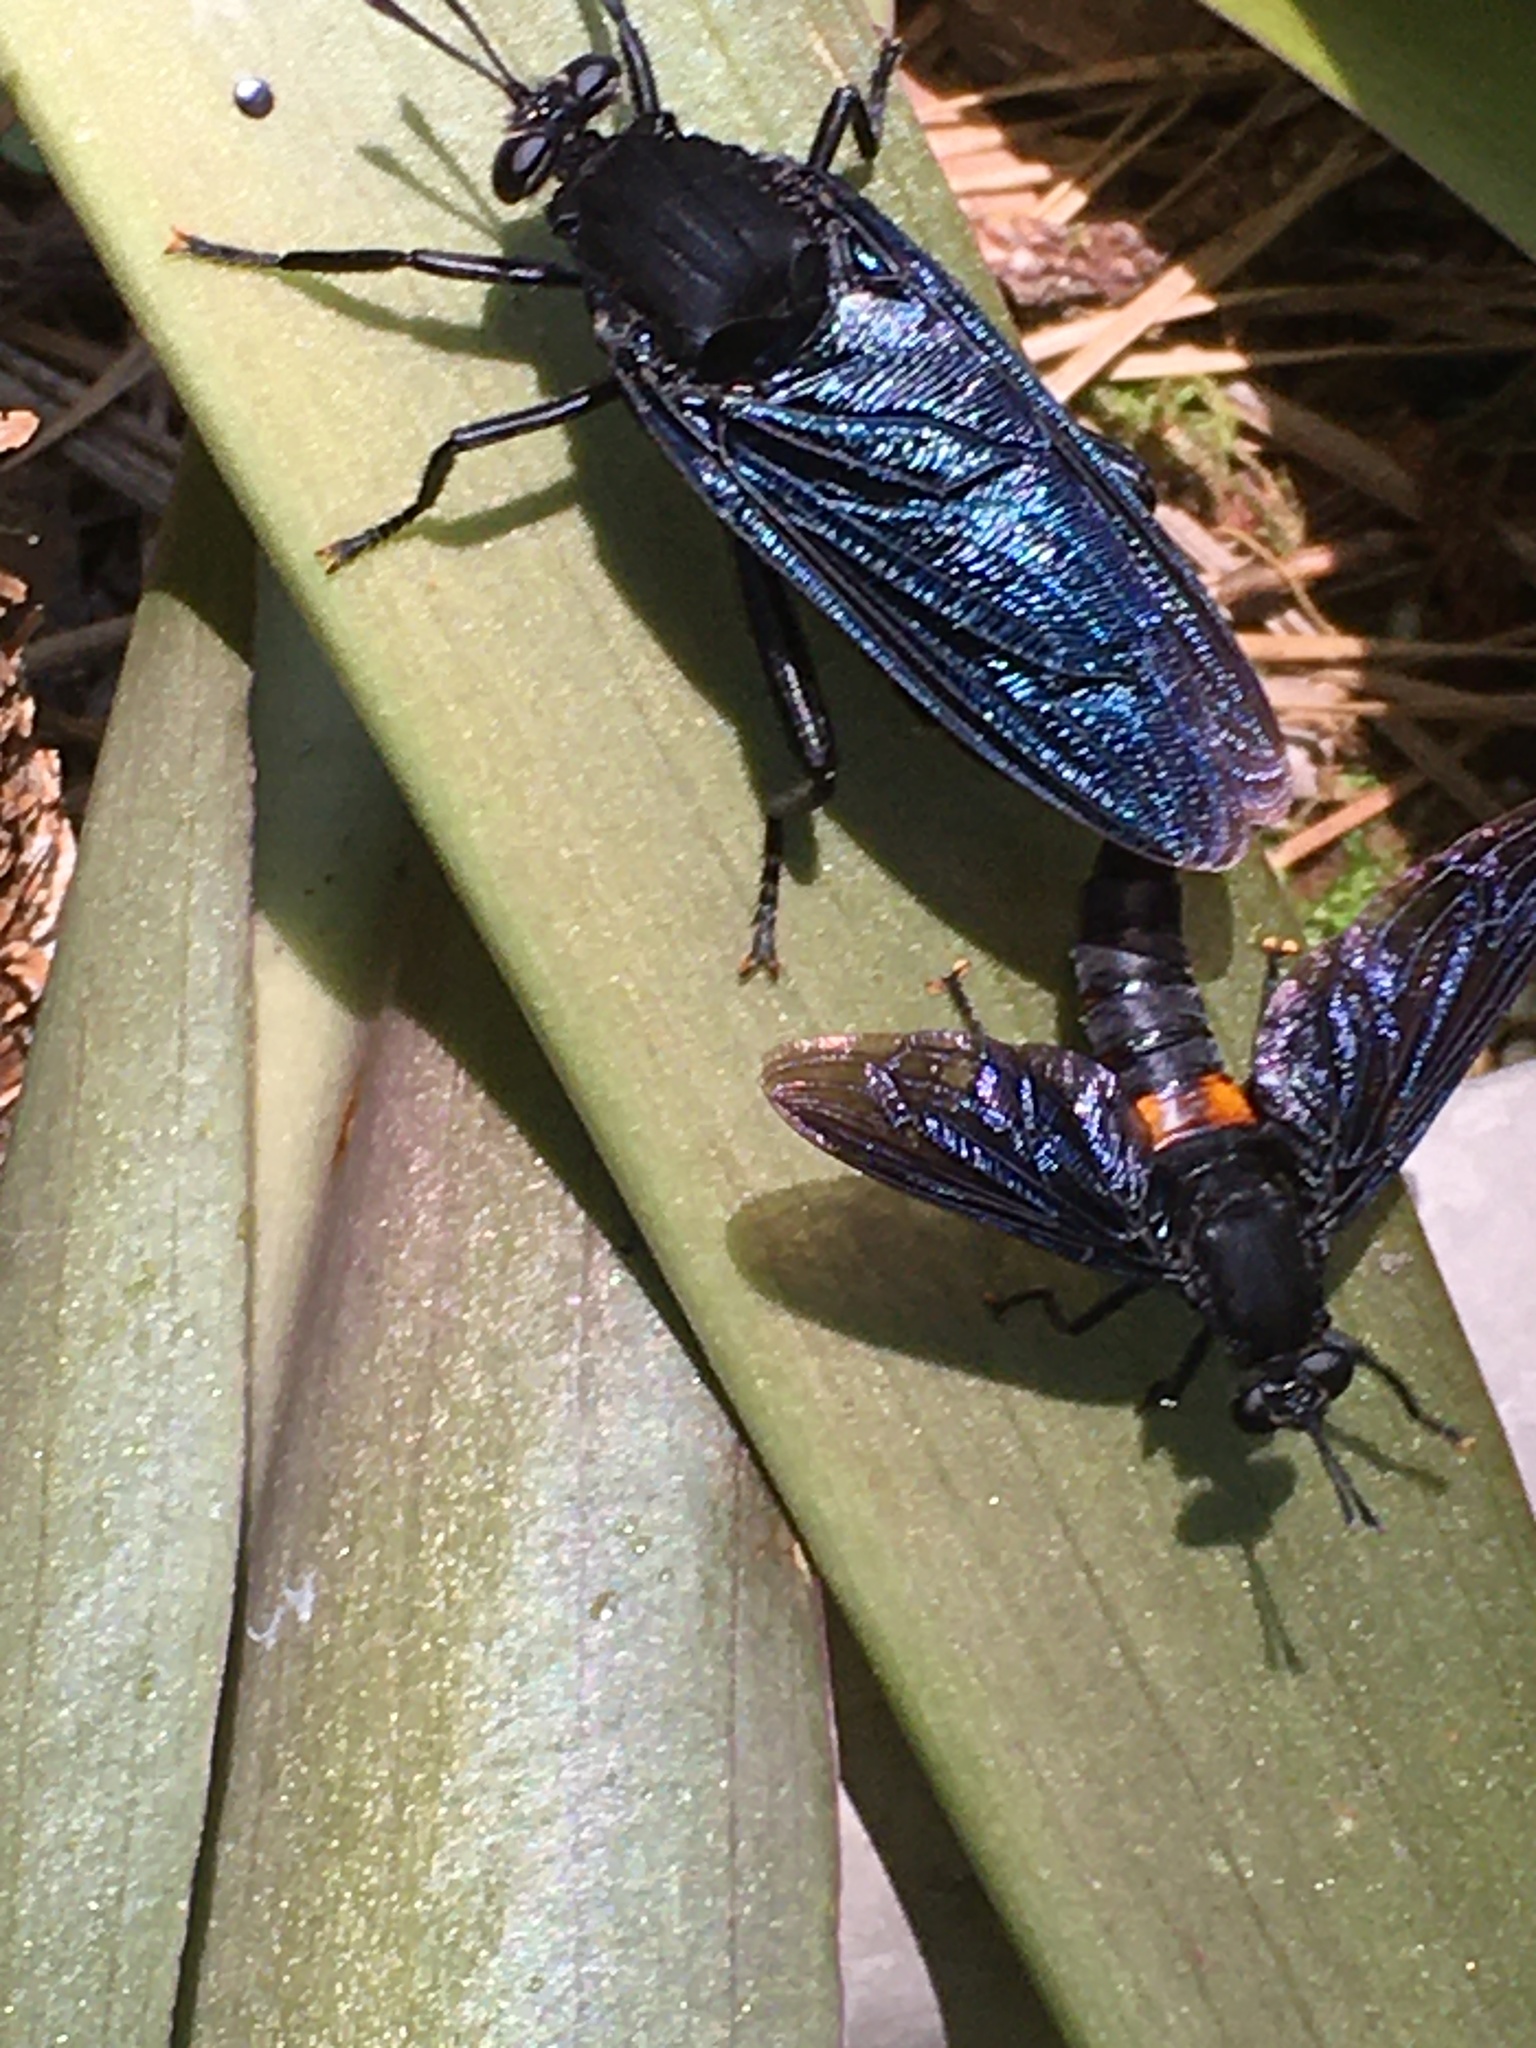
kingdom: Animalia
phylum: Arthropoda
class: Insecta
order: Diptera
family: Mydidae
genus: Mydas
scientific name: Mydas clavatus
